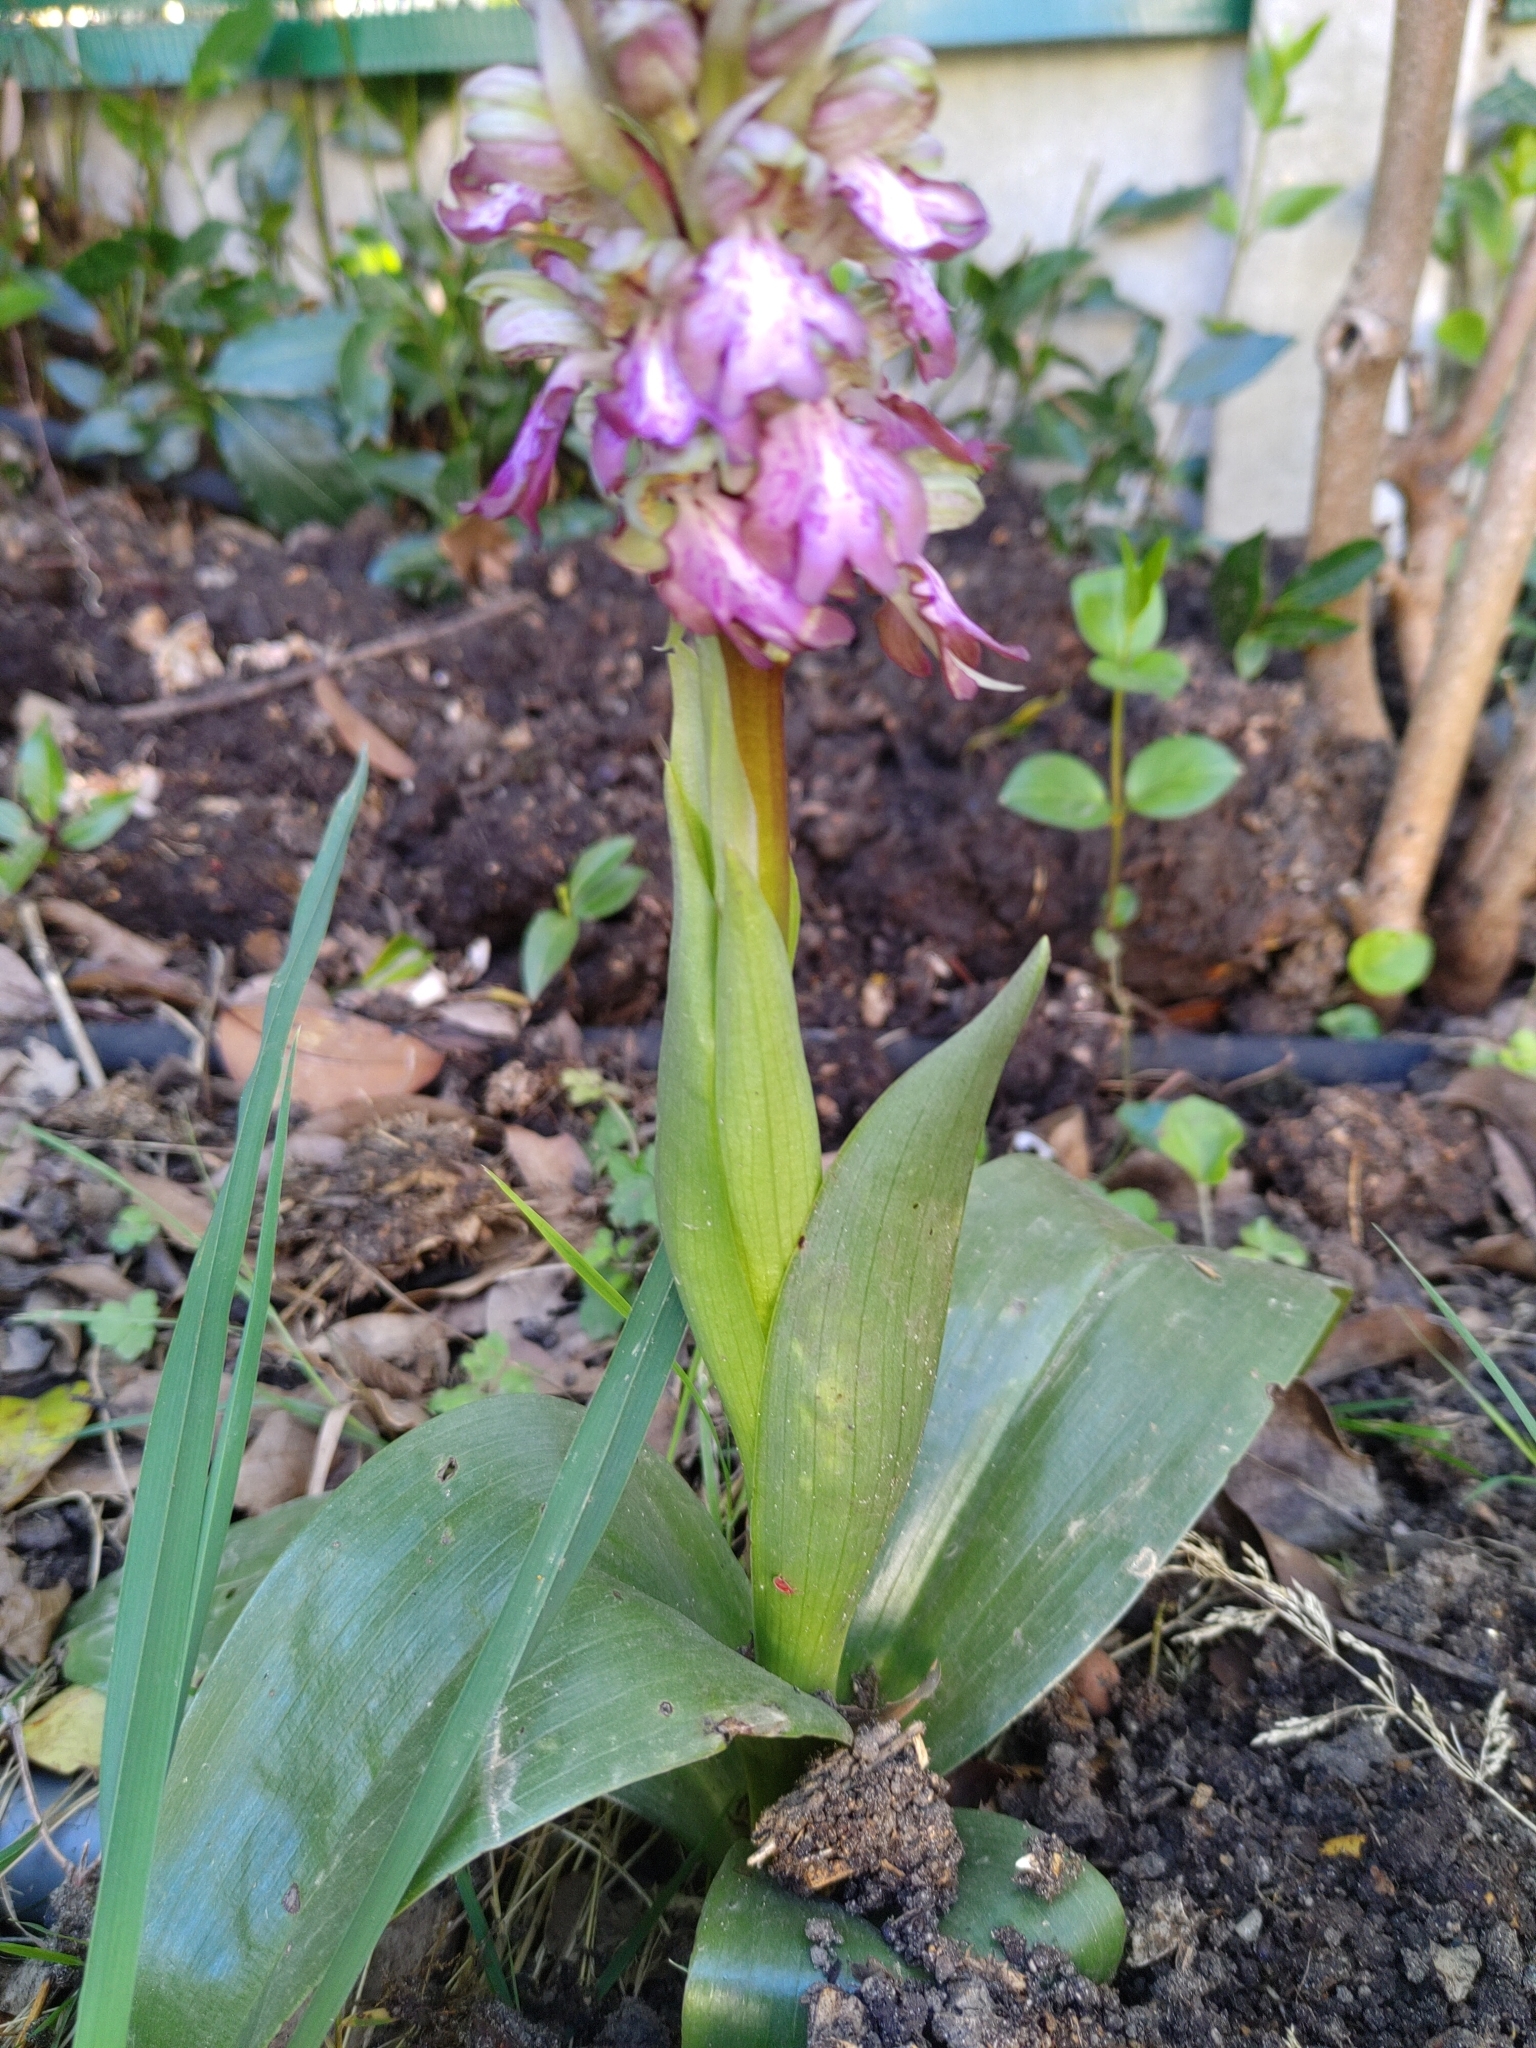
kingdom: Plantae
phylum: Tracheophyta
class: Liliopsida
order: Asparagales
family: Orchidaceae
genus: Himantoglossum
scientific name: Himantoglossum robertianum
